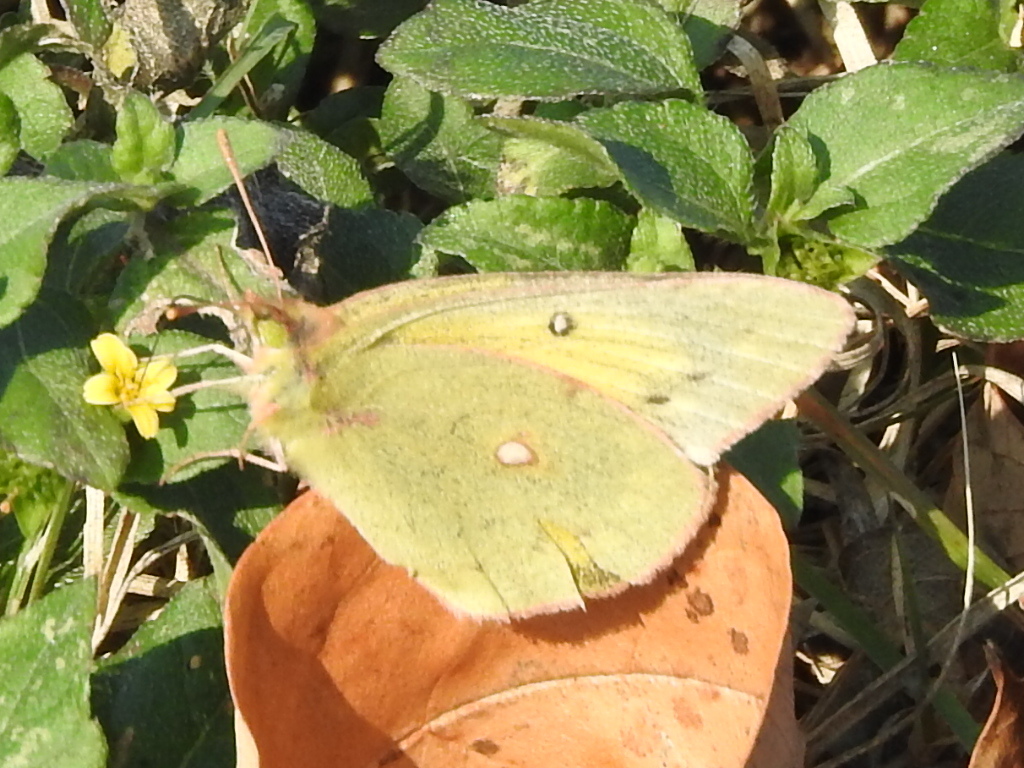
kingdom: Animalia
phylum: Arthropoda
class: Insecta
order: Lepidoptera
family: Pieridae
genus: Colias
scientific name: Colias eurytheme
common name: Alfalfa butterfly
